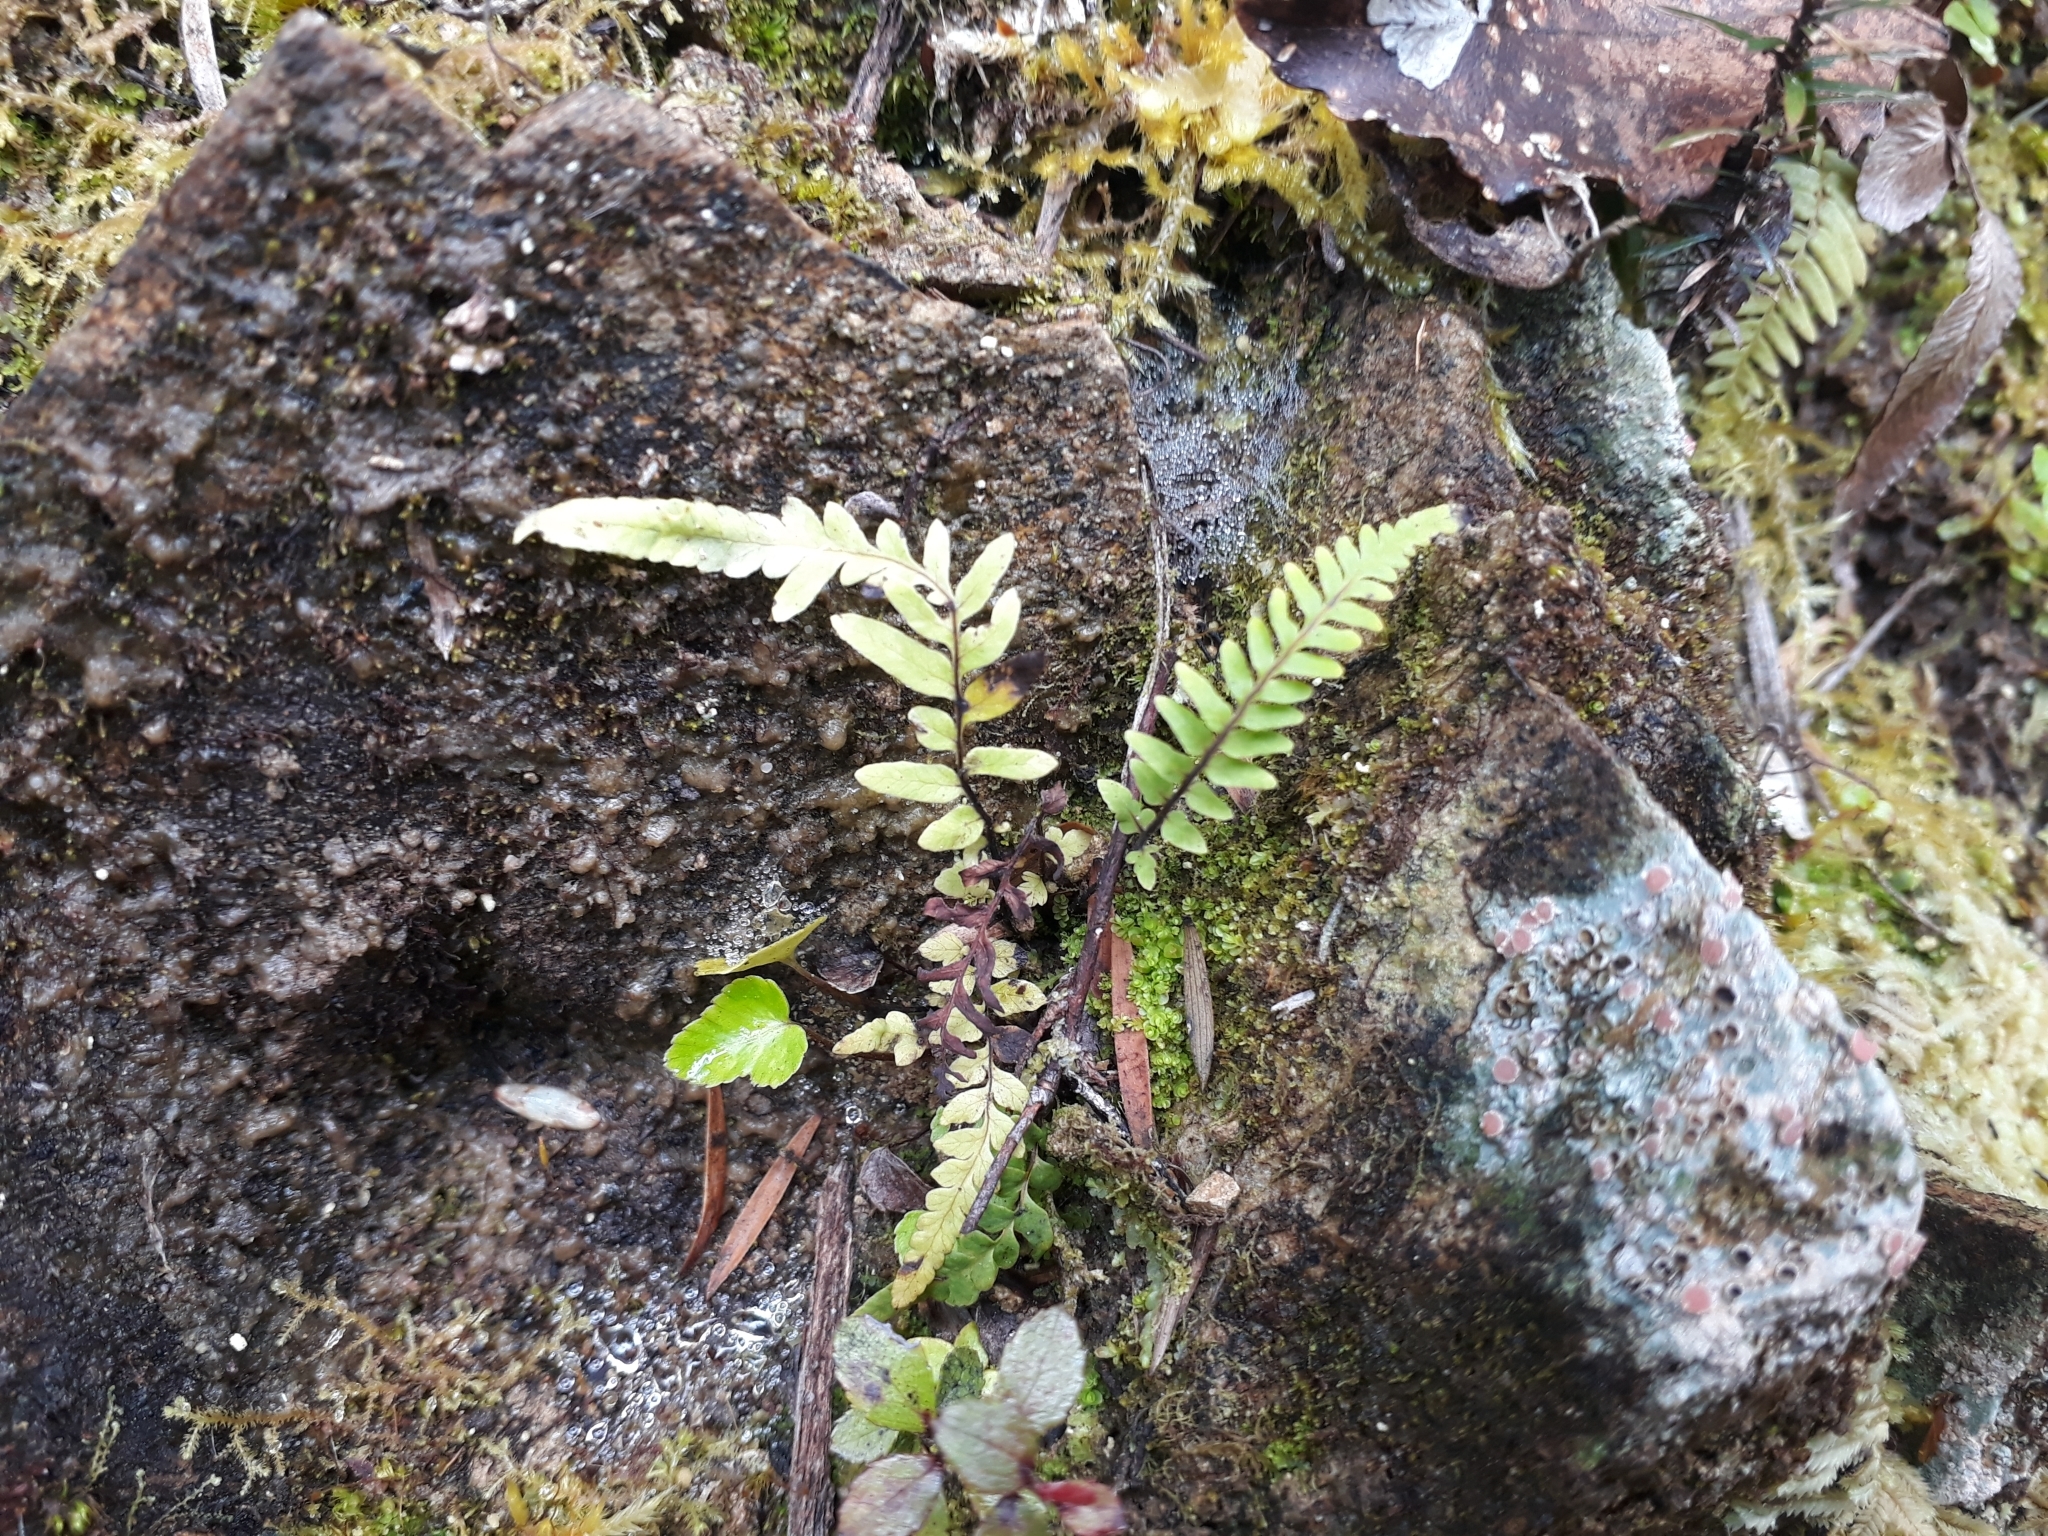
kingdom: Plantae
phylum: Tracheophyta
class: Polypodiopsida
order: Gleicheniales
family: Gleicheniaceae
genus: Sticherus
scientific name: Sticherus cunninghamii
